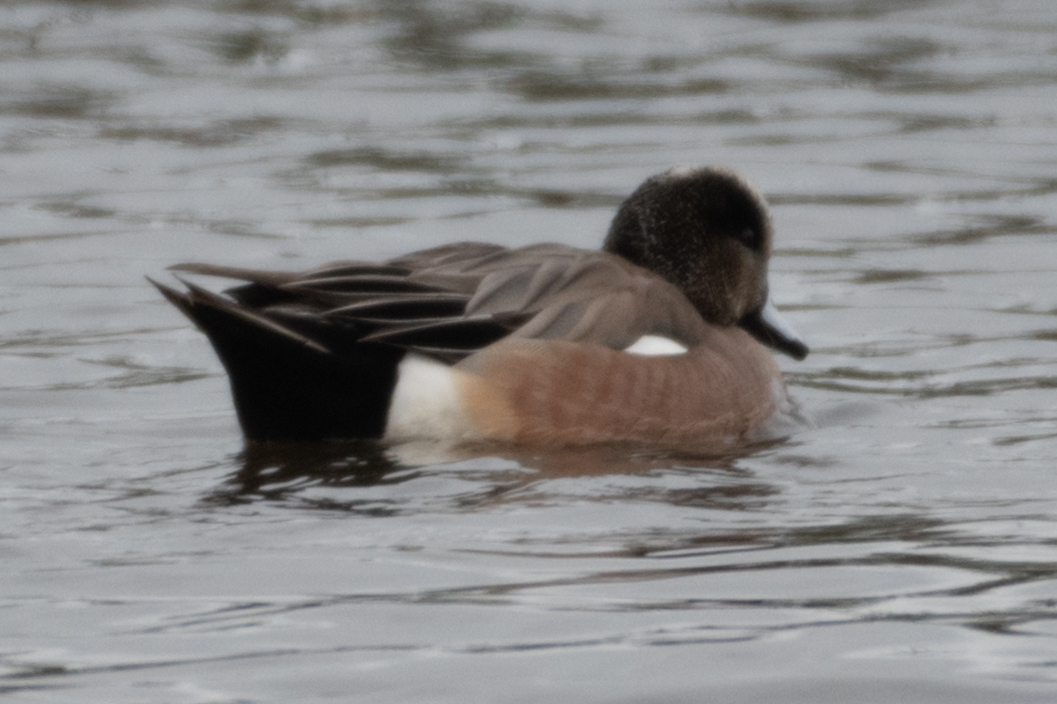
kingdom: Animalia
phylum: Chordata
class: Aves
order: Anseriformes
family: Anatidae
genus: Mareca
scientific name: Mareca americana
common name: American wigeon
